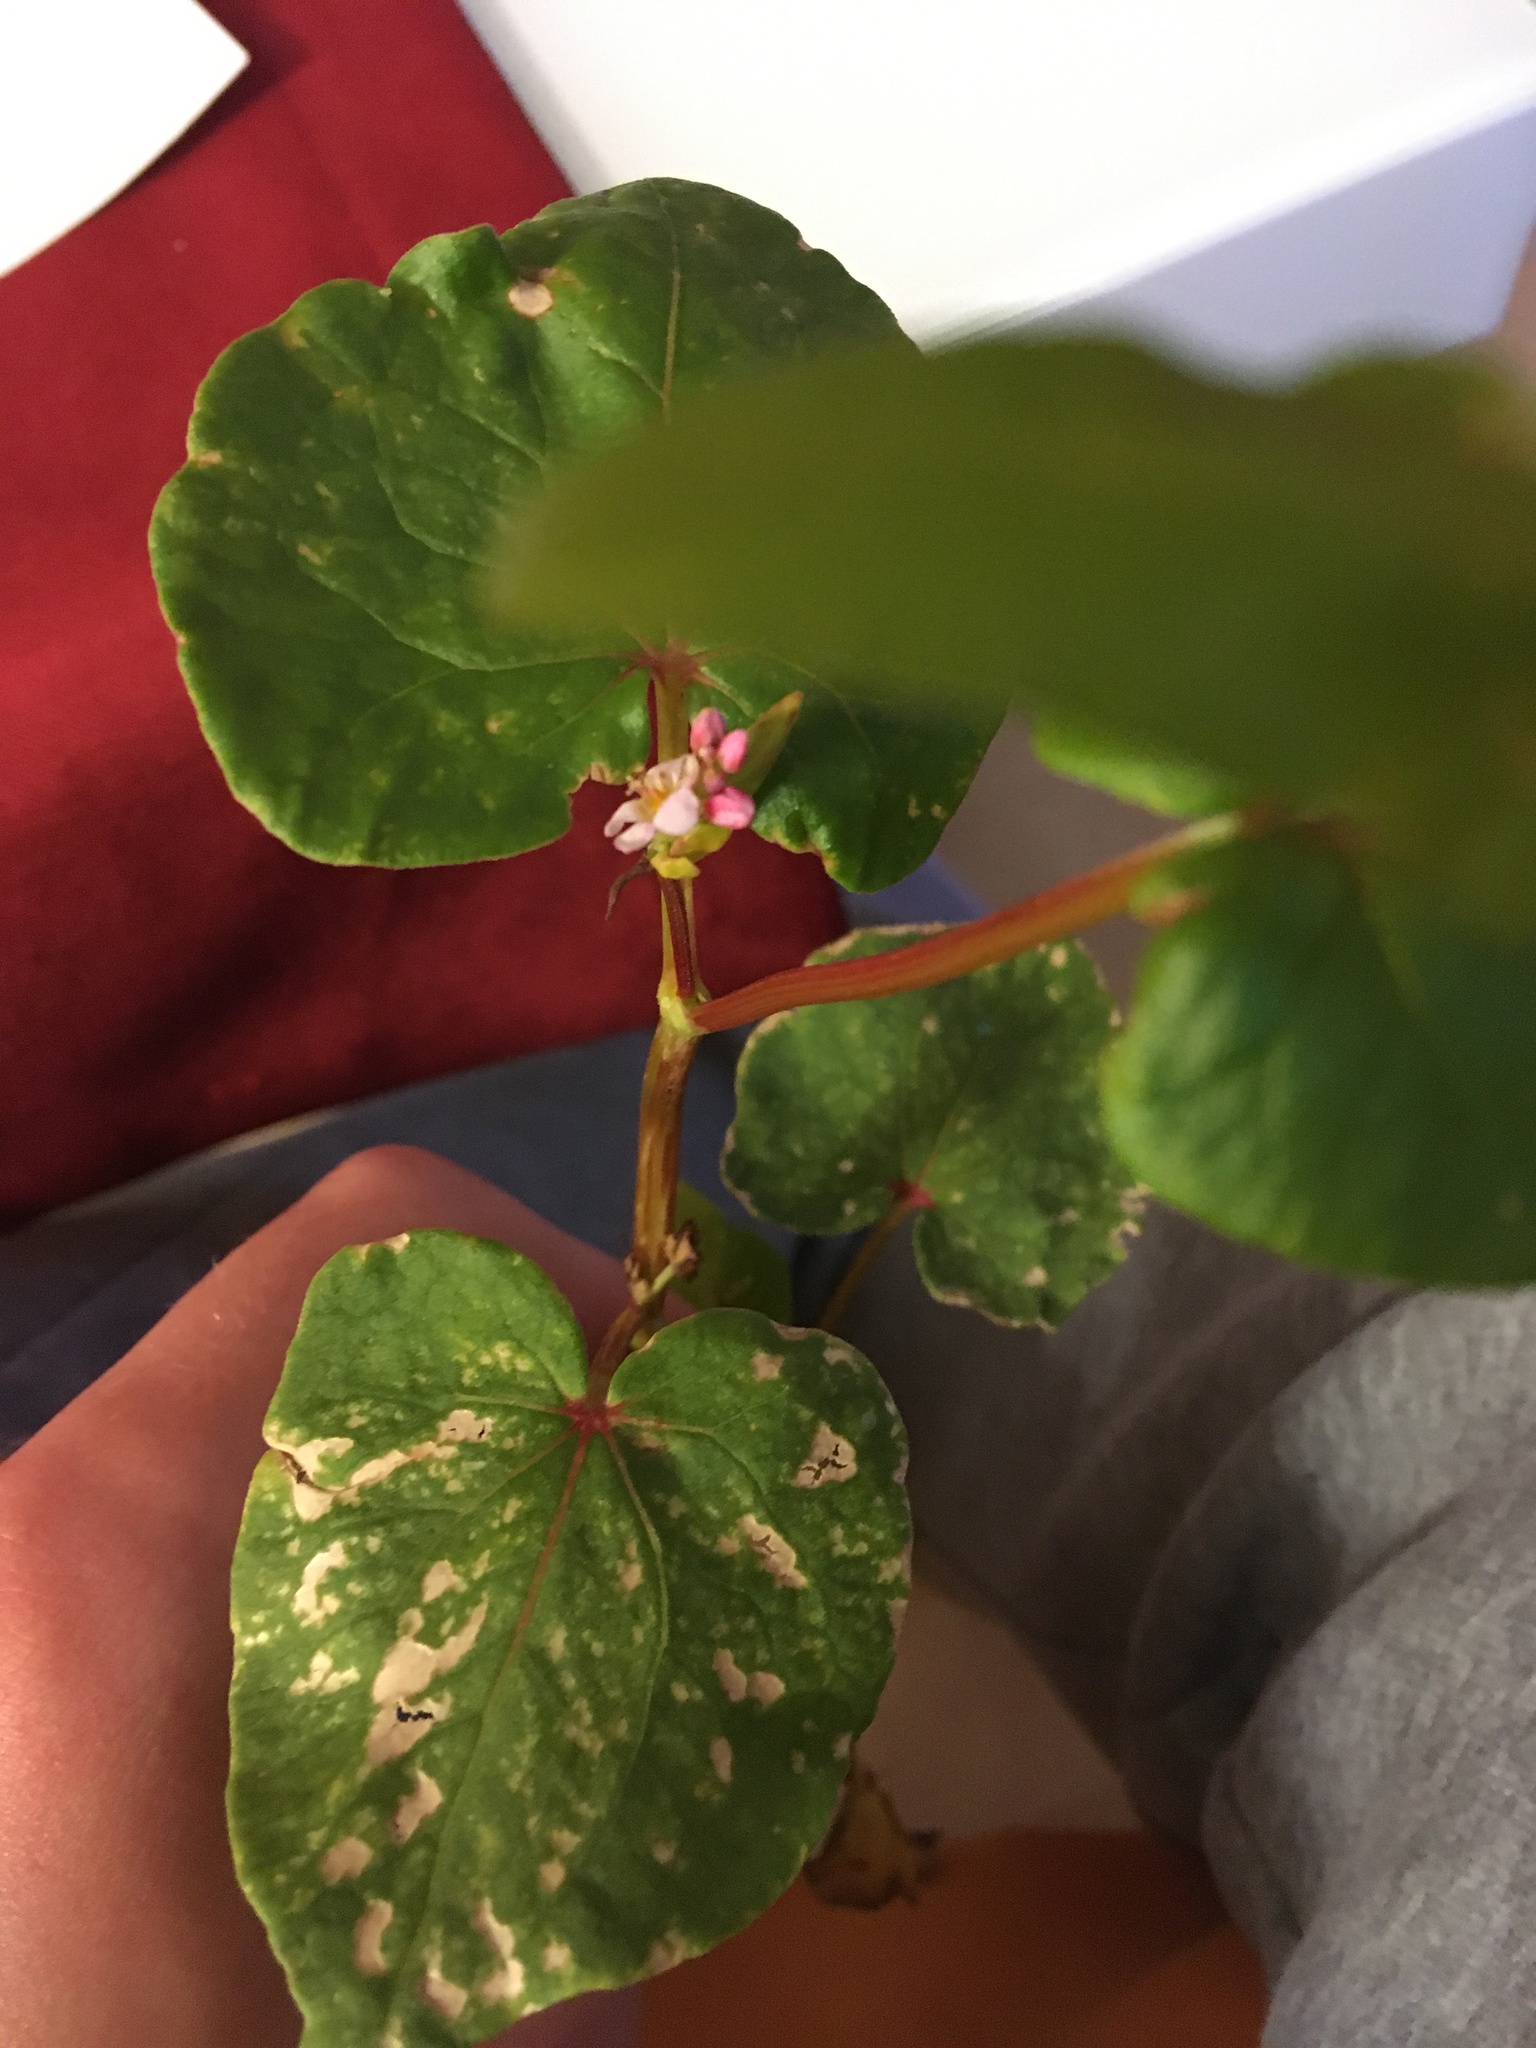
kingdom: Plantae
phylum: Tracheophyta
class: Magnoliopsida
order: Caryophyllales
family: Polygonaceae
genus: Fagopyrum
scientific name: Fagopyrum esculentum
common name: Buckwheat
